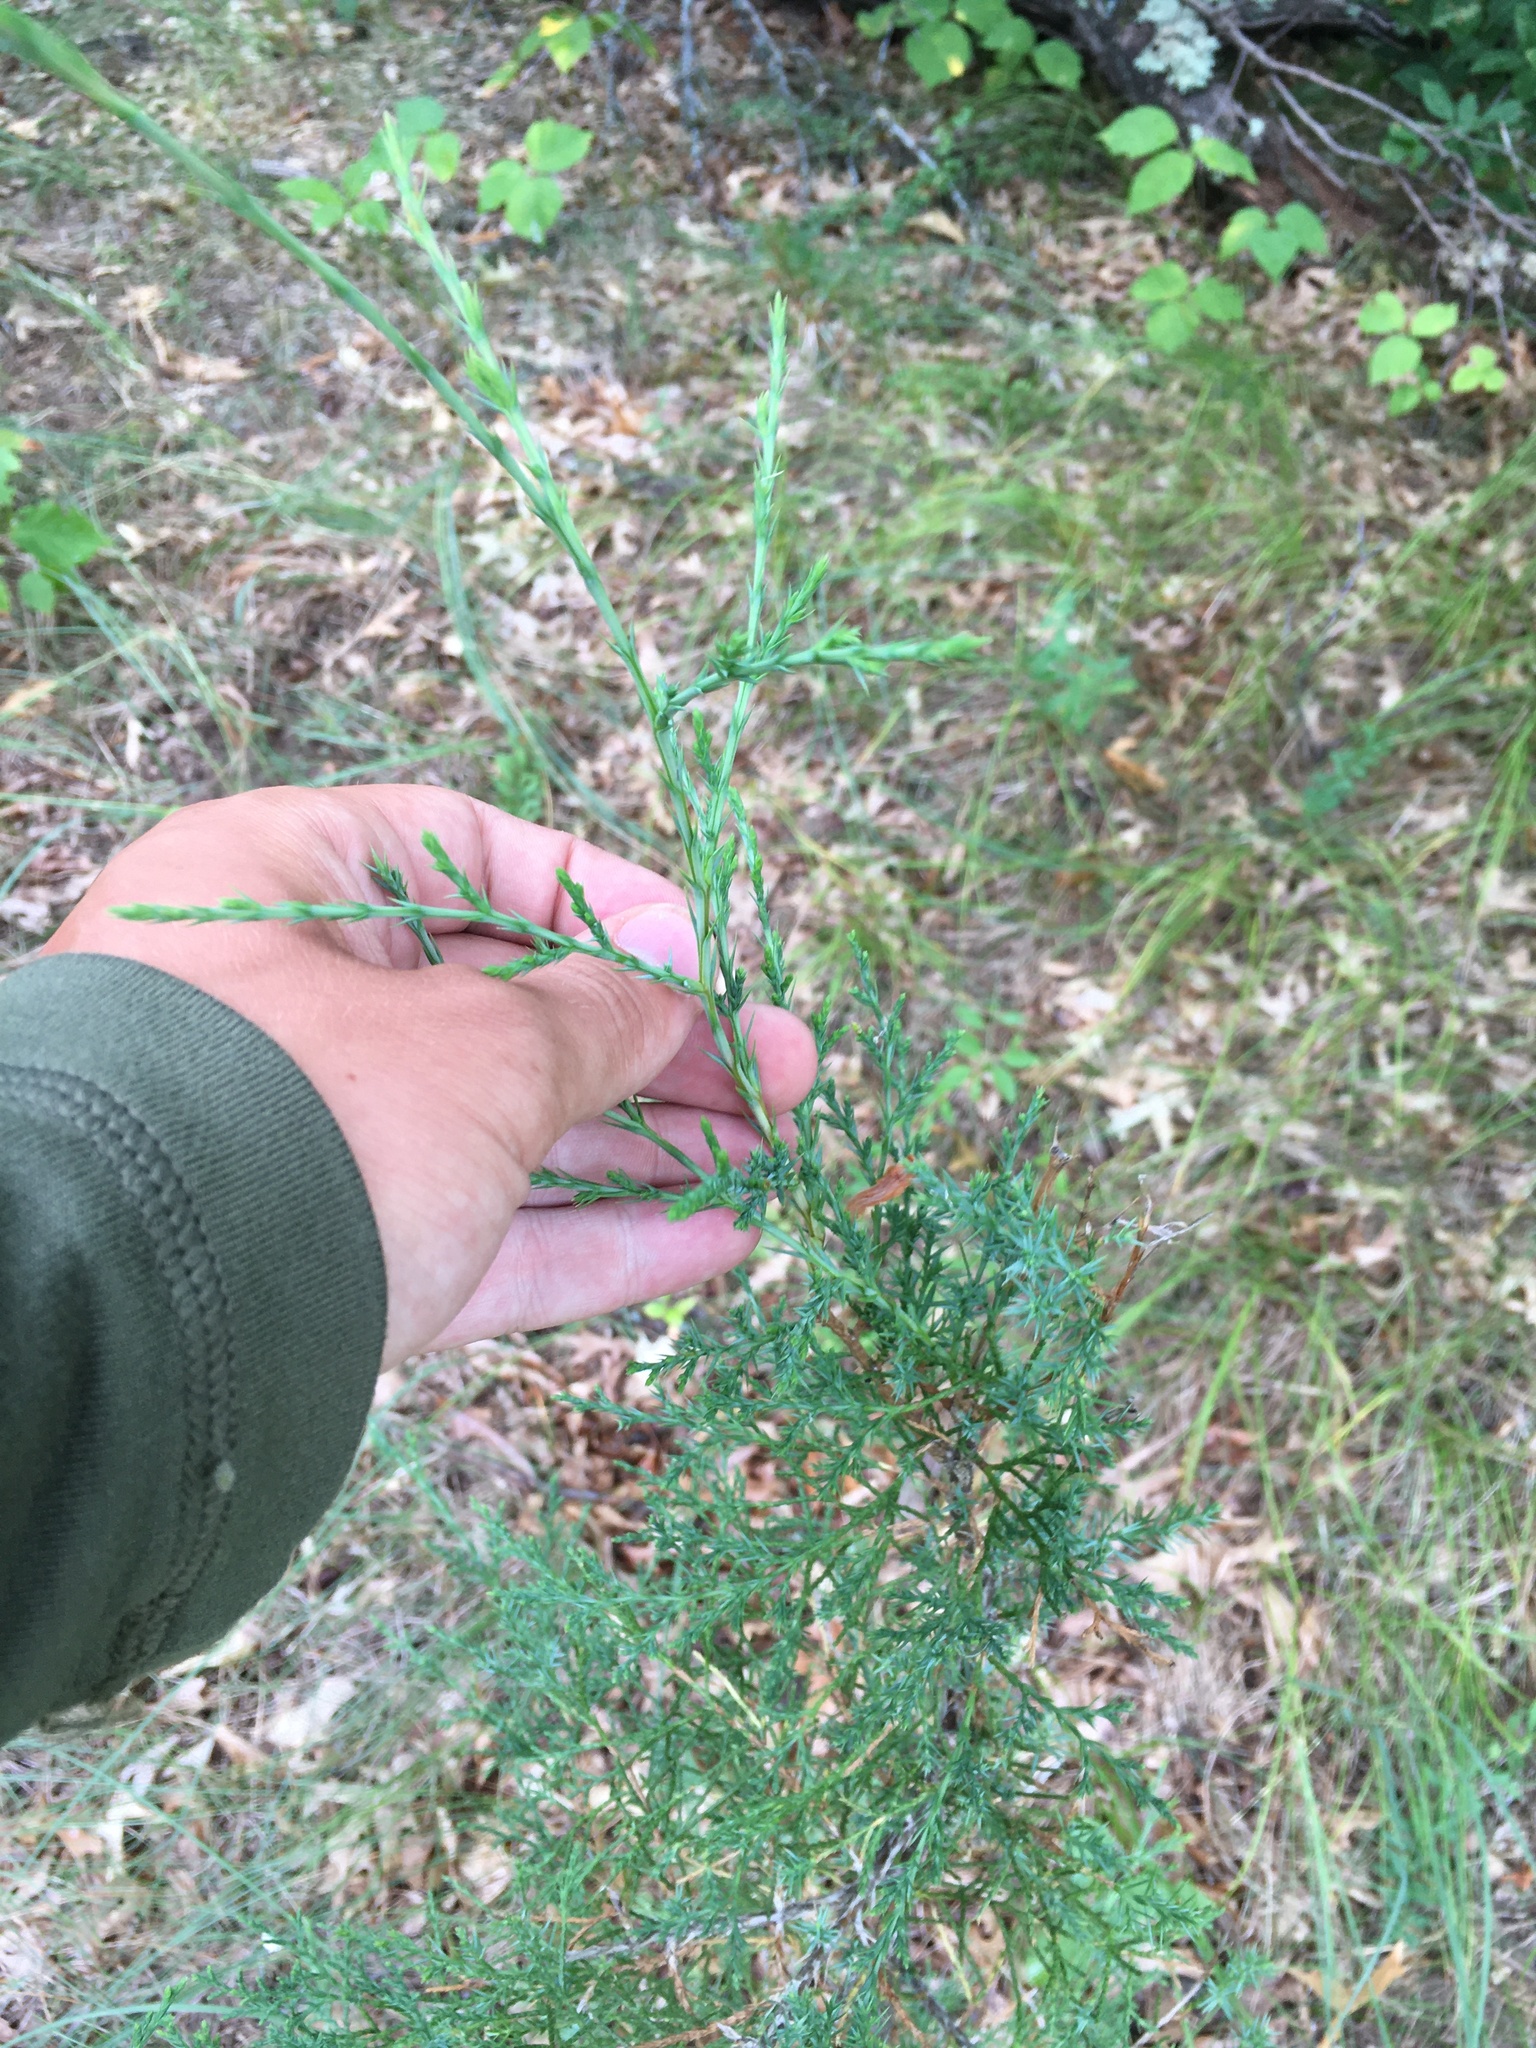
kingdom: Plantae
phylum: Tracheophyta
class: Pinopsida
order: Pinales
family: Cupressaceae
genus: Juniperus
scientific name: Juniperus virginiana
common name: Red juniper
